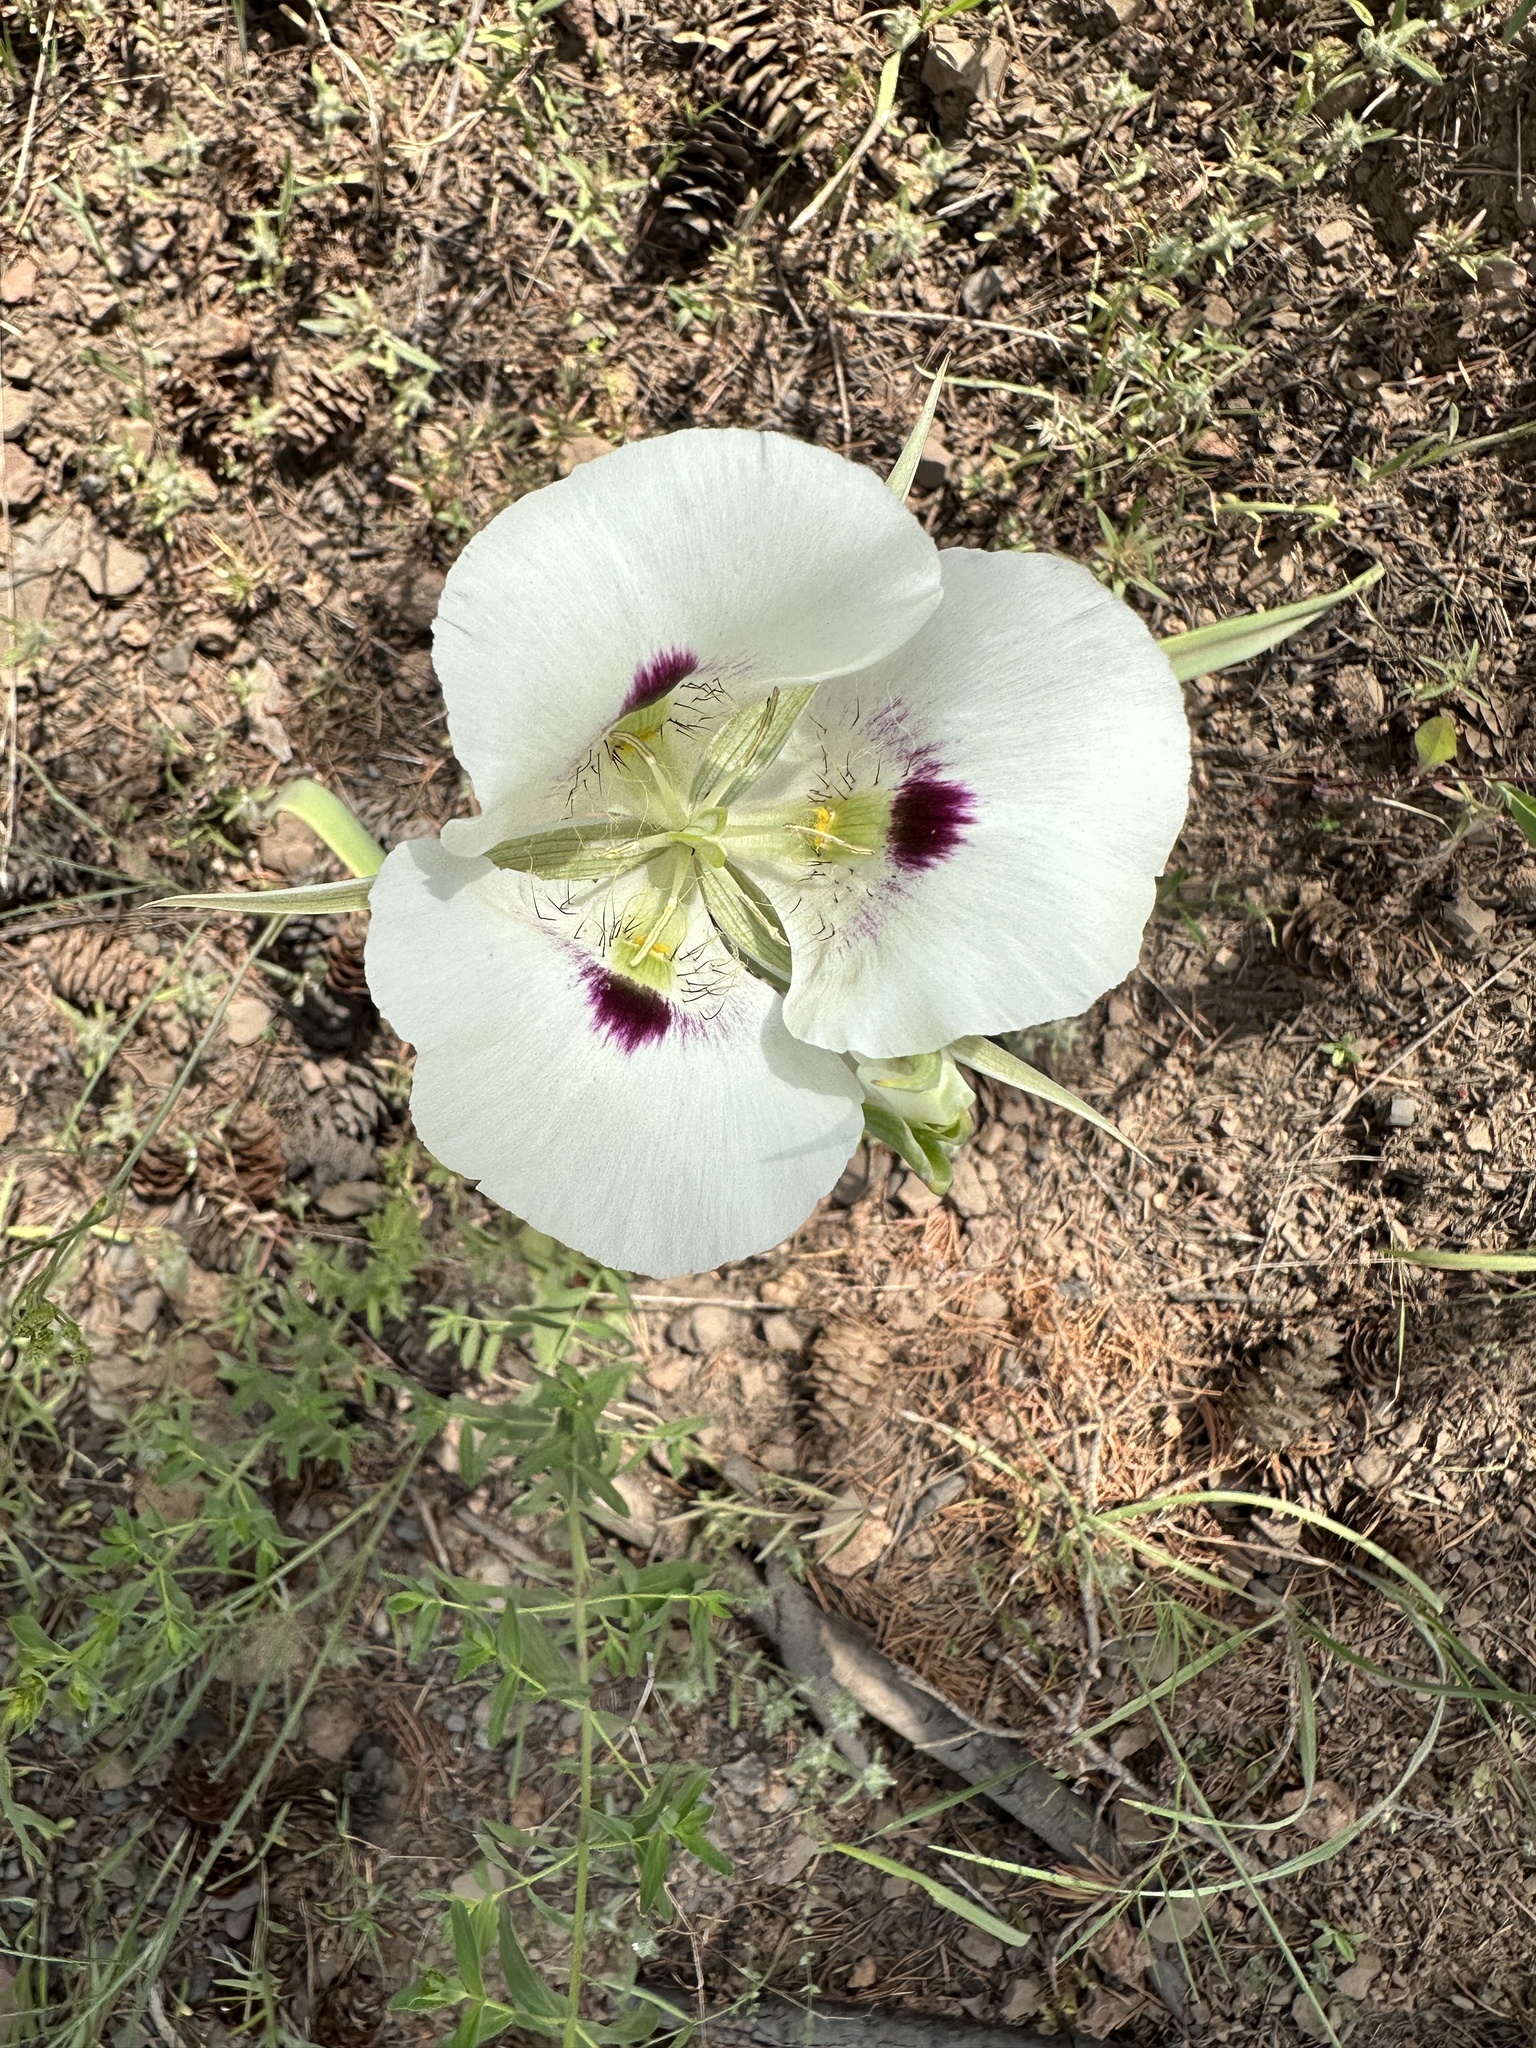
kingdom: Plantae
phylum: Tracheophyta
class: Liliopsida
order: Liliales
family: Liliaceae
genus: Calochortus
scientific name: Calochortus eurycarpus
